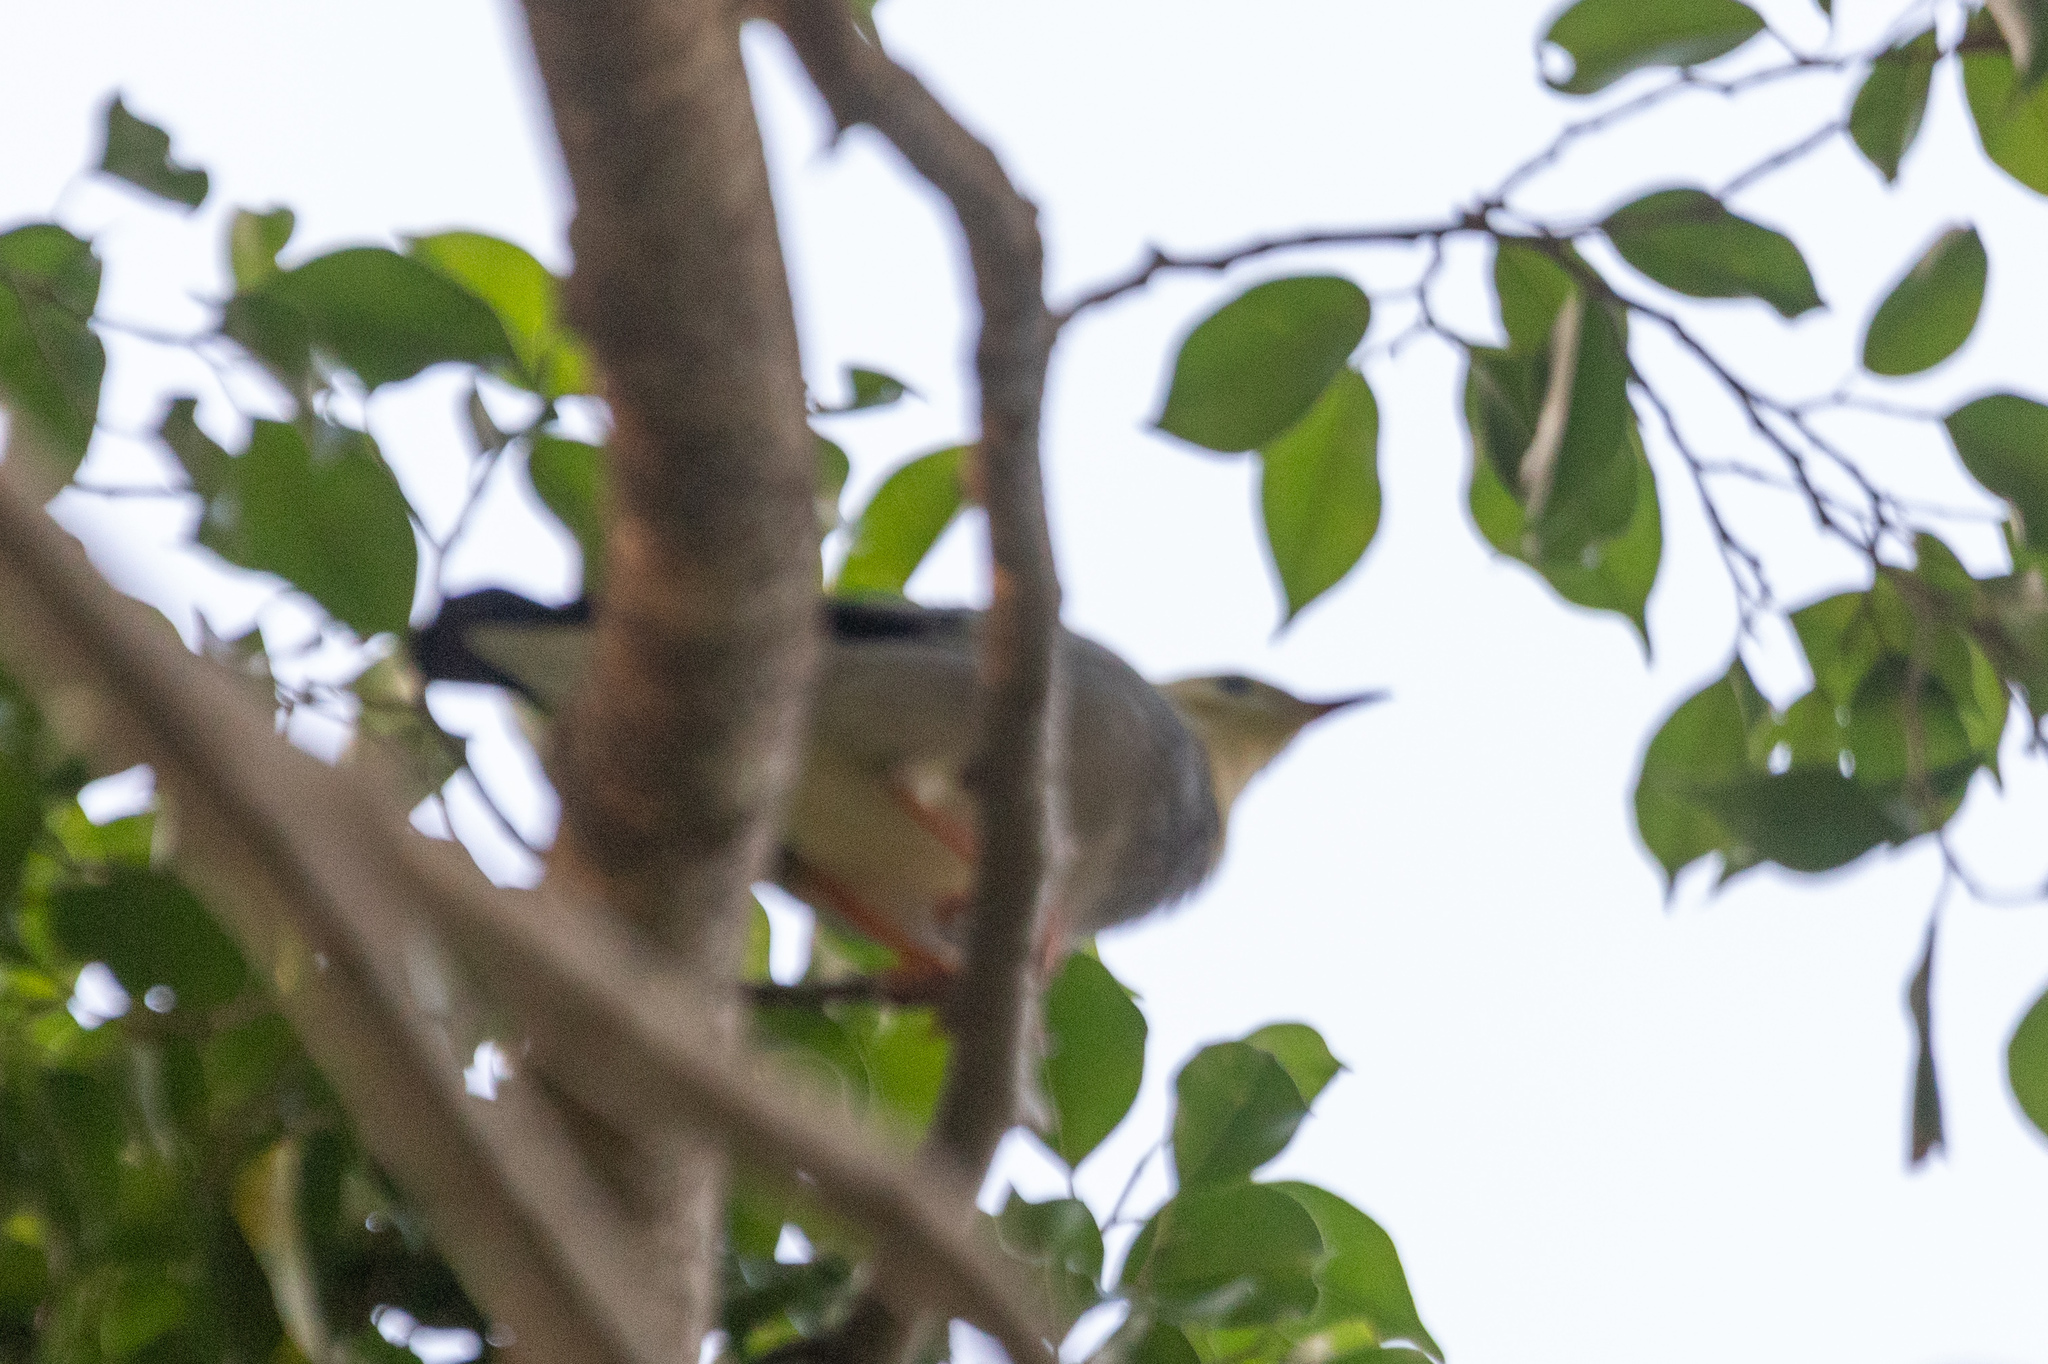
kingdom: Animalia
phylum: Chordata
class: Aves
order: Passeriformes
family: Sturnidae
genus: Spodiopsar
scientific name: Spodiopsar sericeus
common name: Red-billed starling
